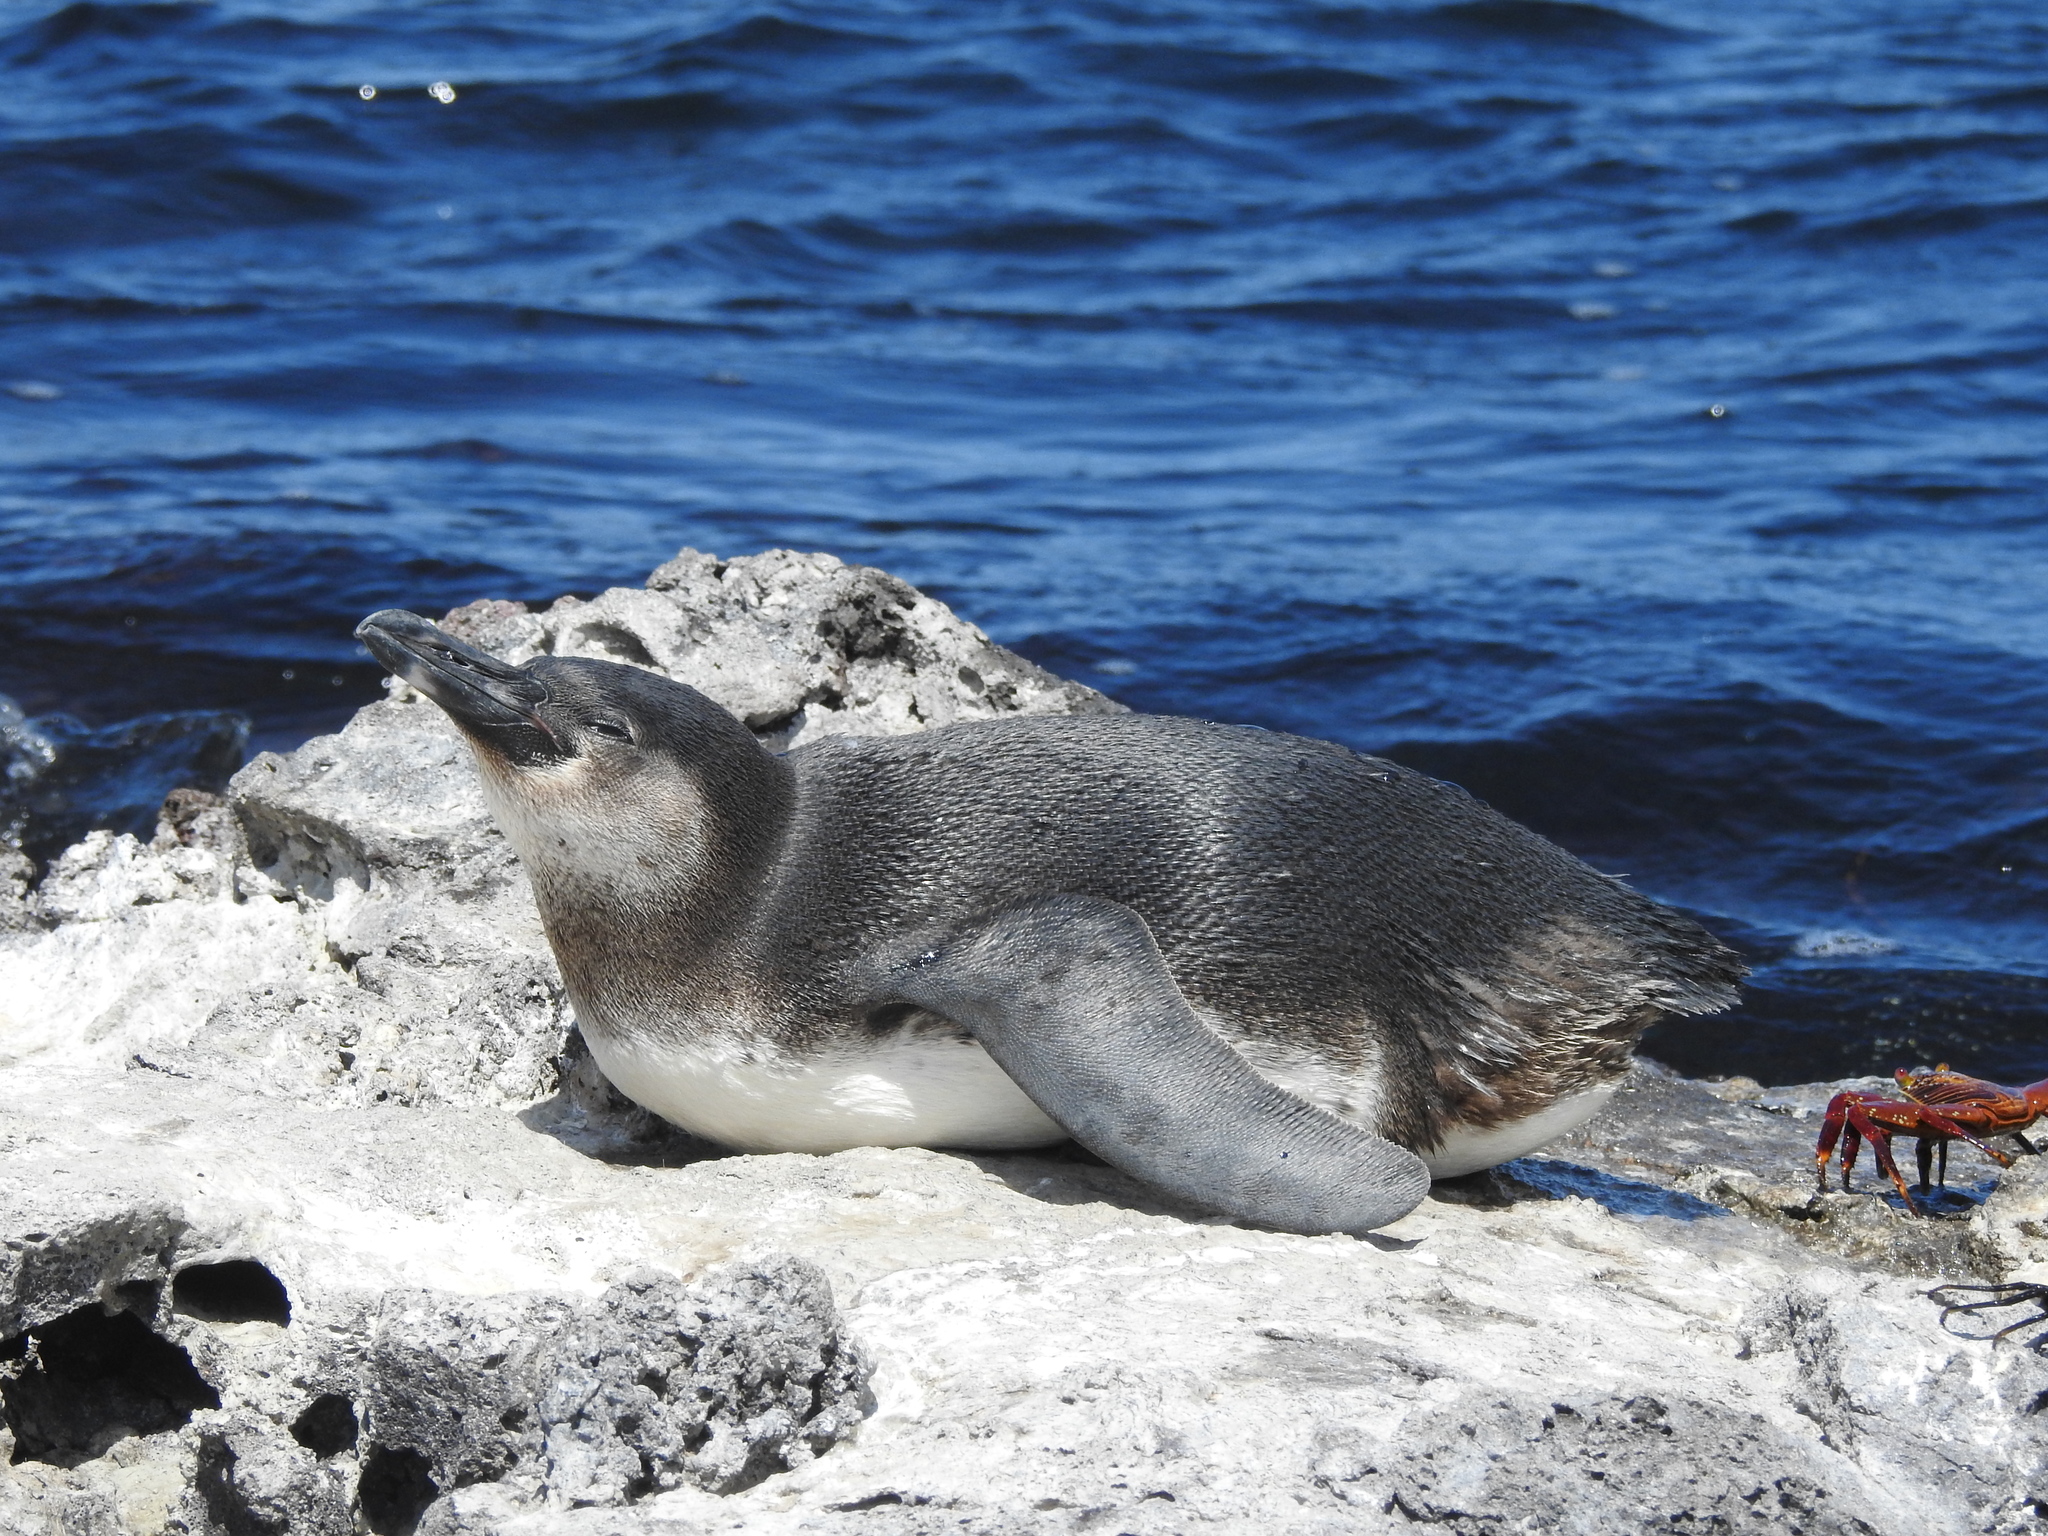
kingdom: Animalia
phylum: Chordata
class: Aves
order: Sphenisciformes
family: Spheniscidae
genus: Spheniscus
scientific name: Spheniscus mendiculus
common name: Galapagos penguin
